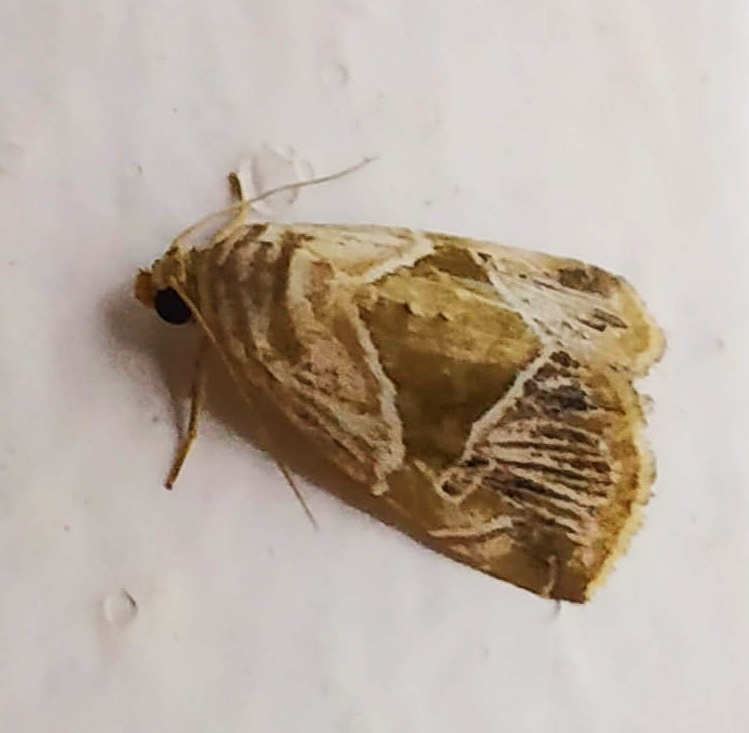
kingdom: Animalia
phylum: Arthropoda
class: Insecta
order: Lepidoptera
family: Noctuidae
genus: Maliattha
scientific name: Maliattha separata
